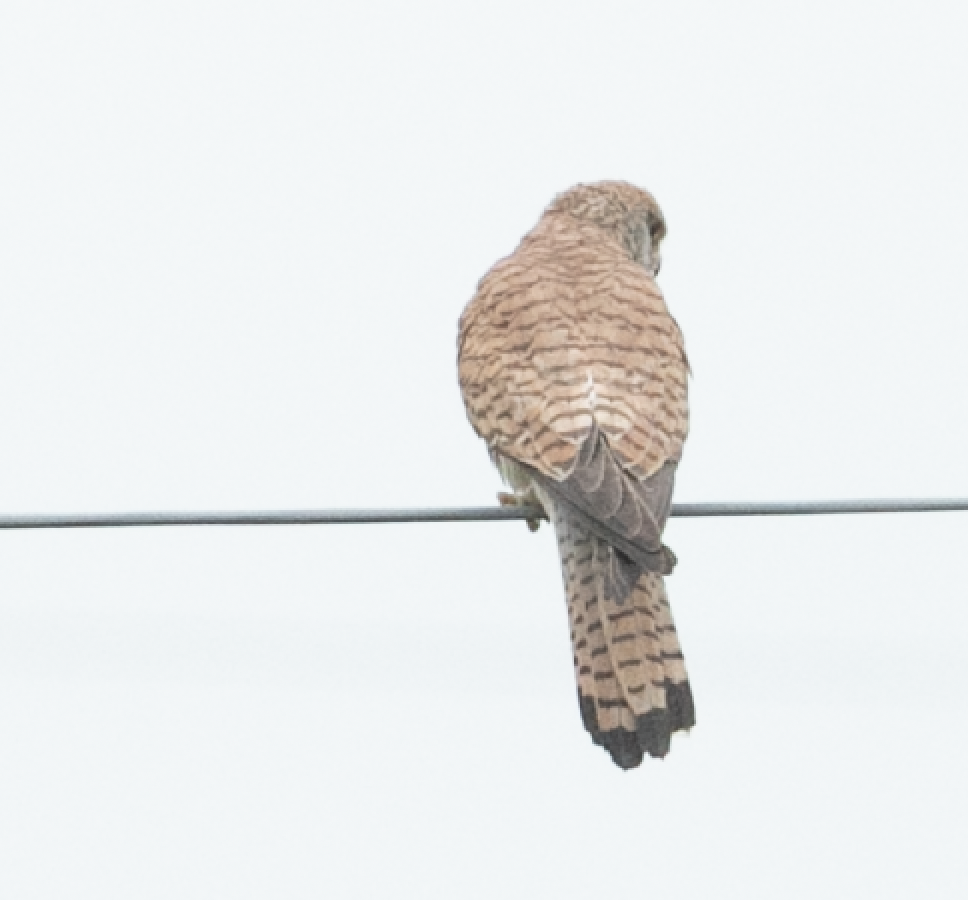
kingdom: Animalia
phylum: Chordata
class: Aves
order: Falconiformes
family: Falconidae
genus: Falco
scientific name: Falco tinnunculus
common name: Common kestrel
